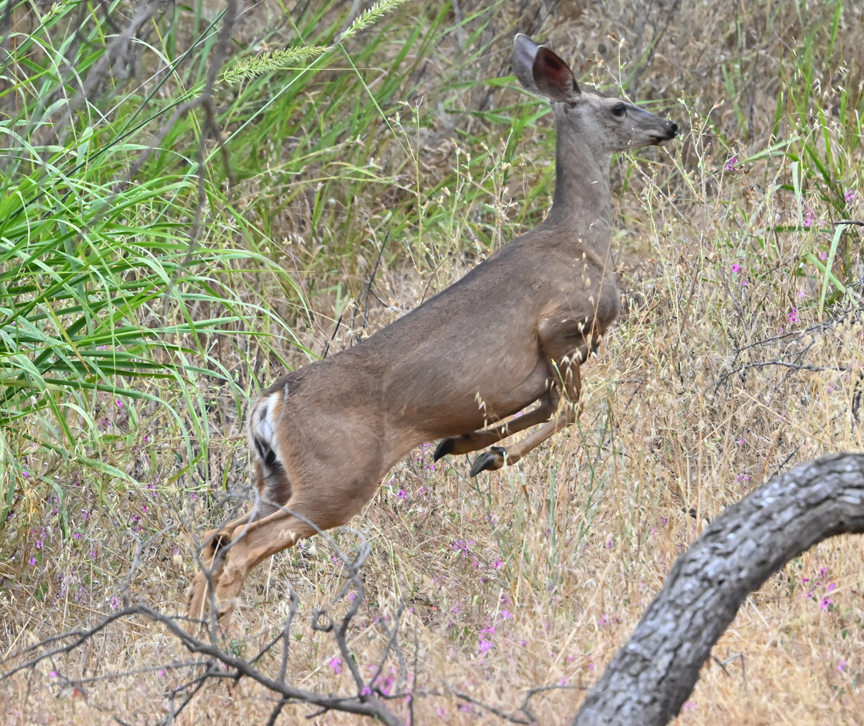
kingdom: Animalia
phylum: Chordata
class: Mammalia
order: Artiodactyla
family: Cervidae
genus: Odocoileus
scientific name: Odocoileus hemionus
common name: Mule deer
